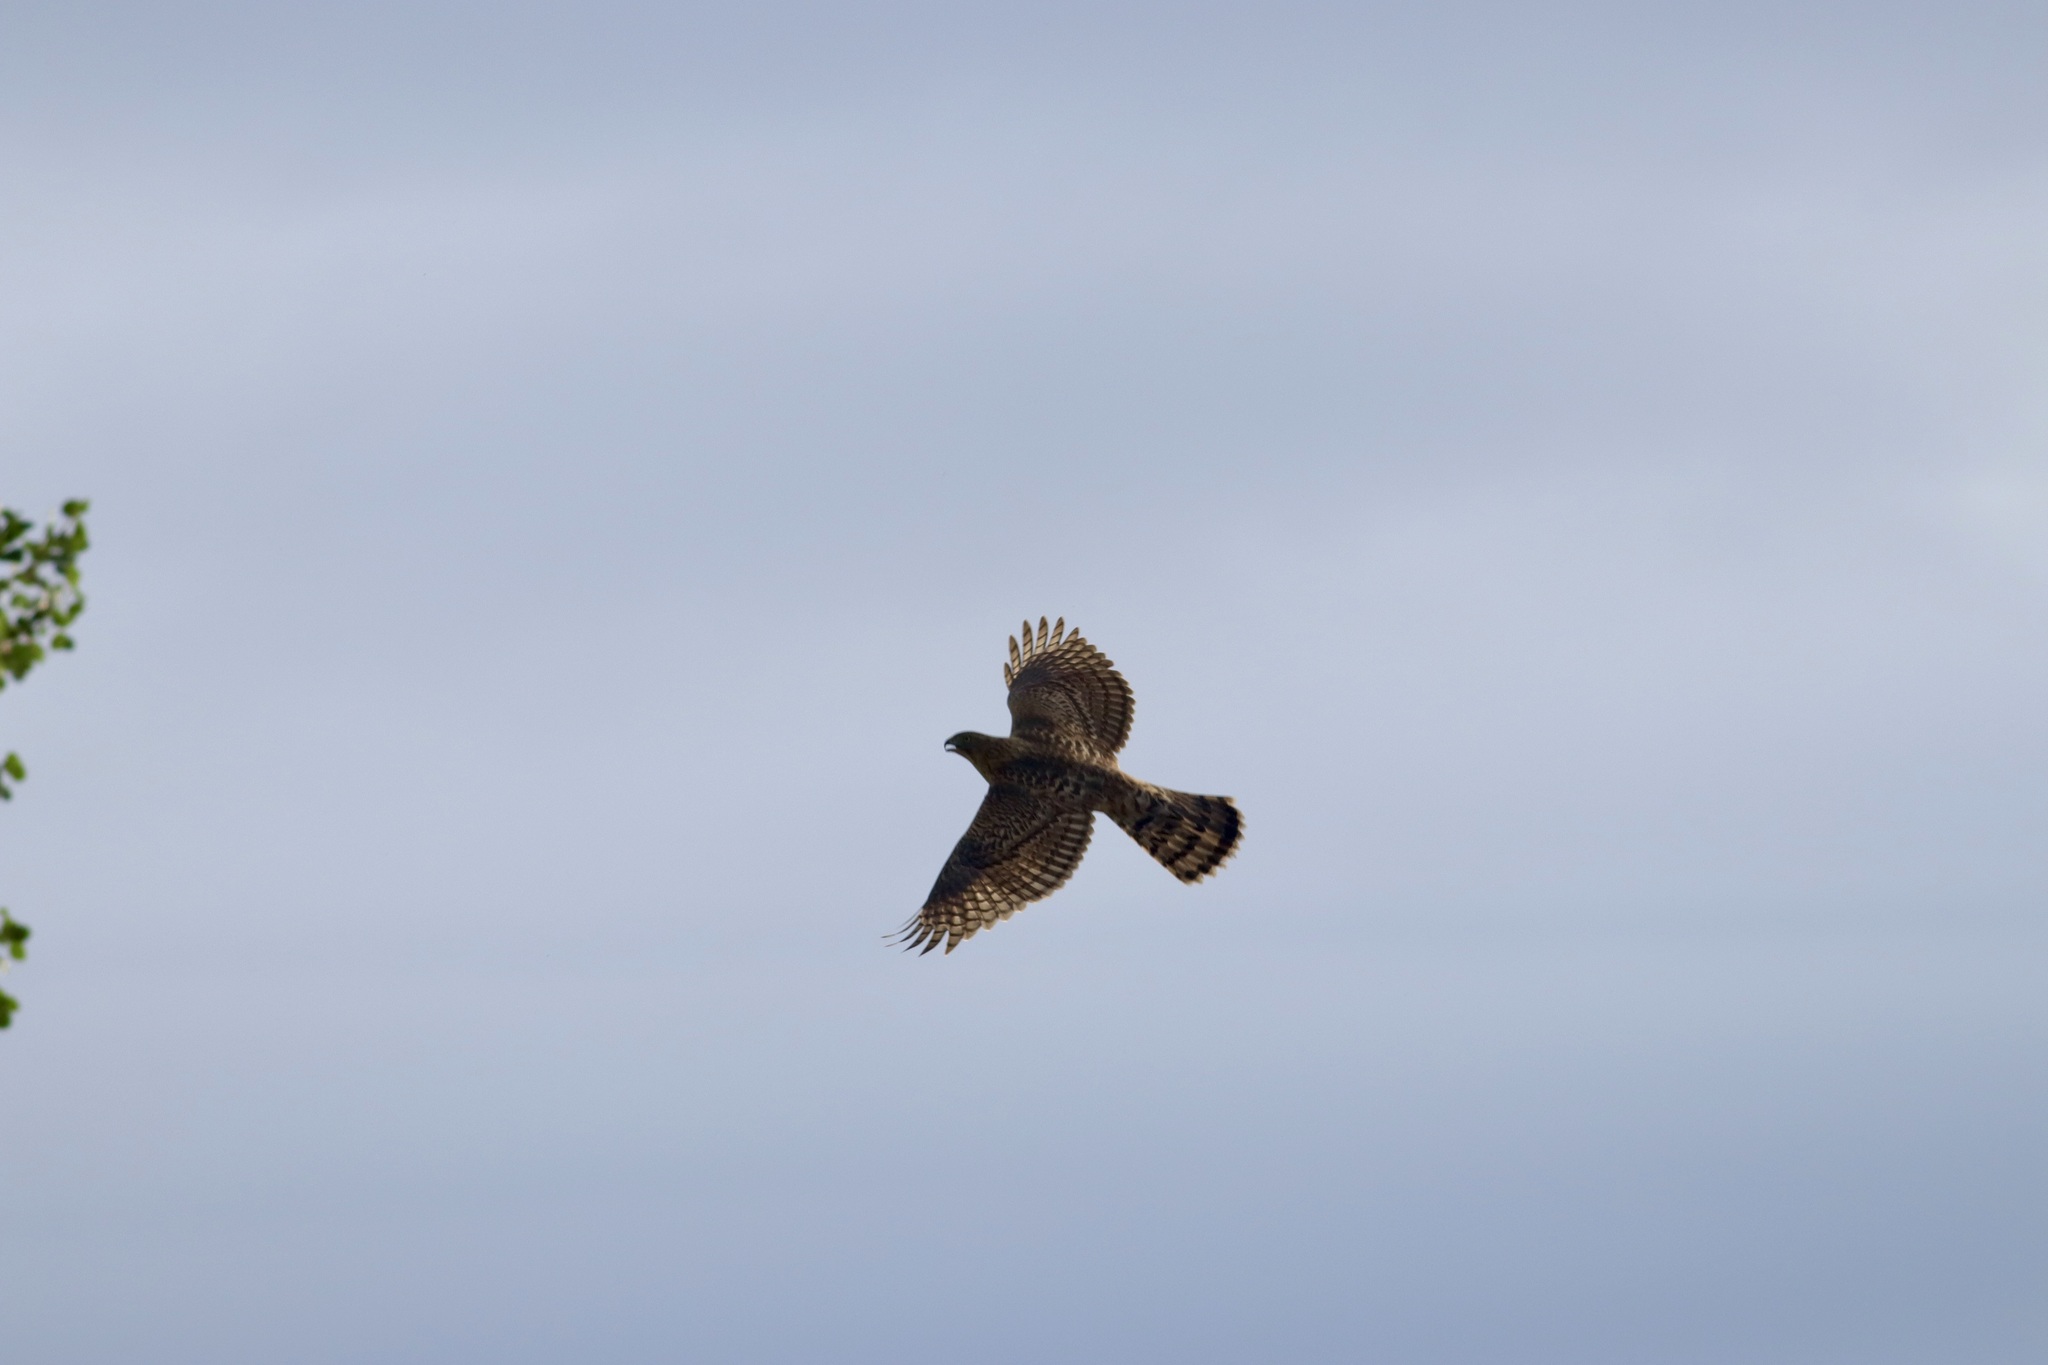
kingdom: Animalia
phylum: Chordata
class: Aves
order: Accipitriformes
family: Accipitridae
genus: Accipiter
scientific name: Accipiter gentilis
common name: Northern goshawk
